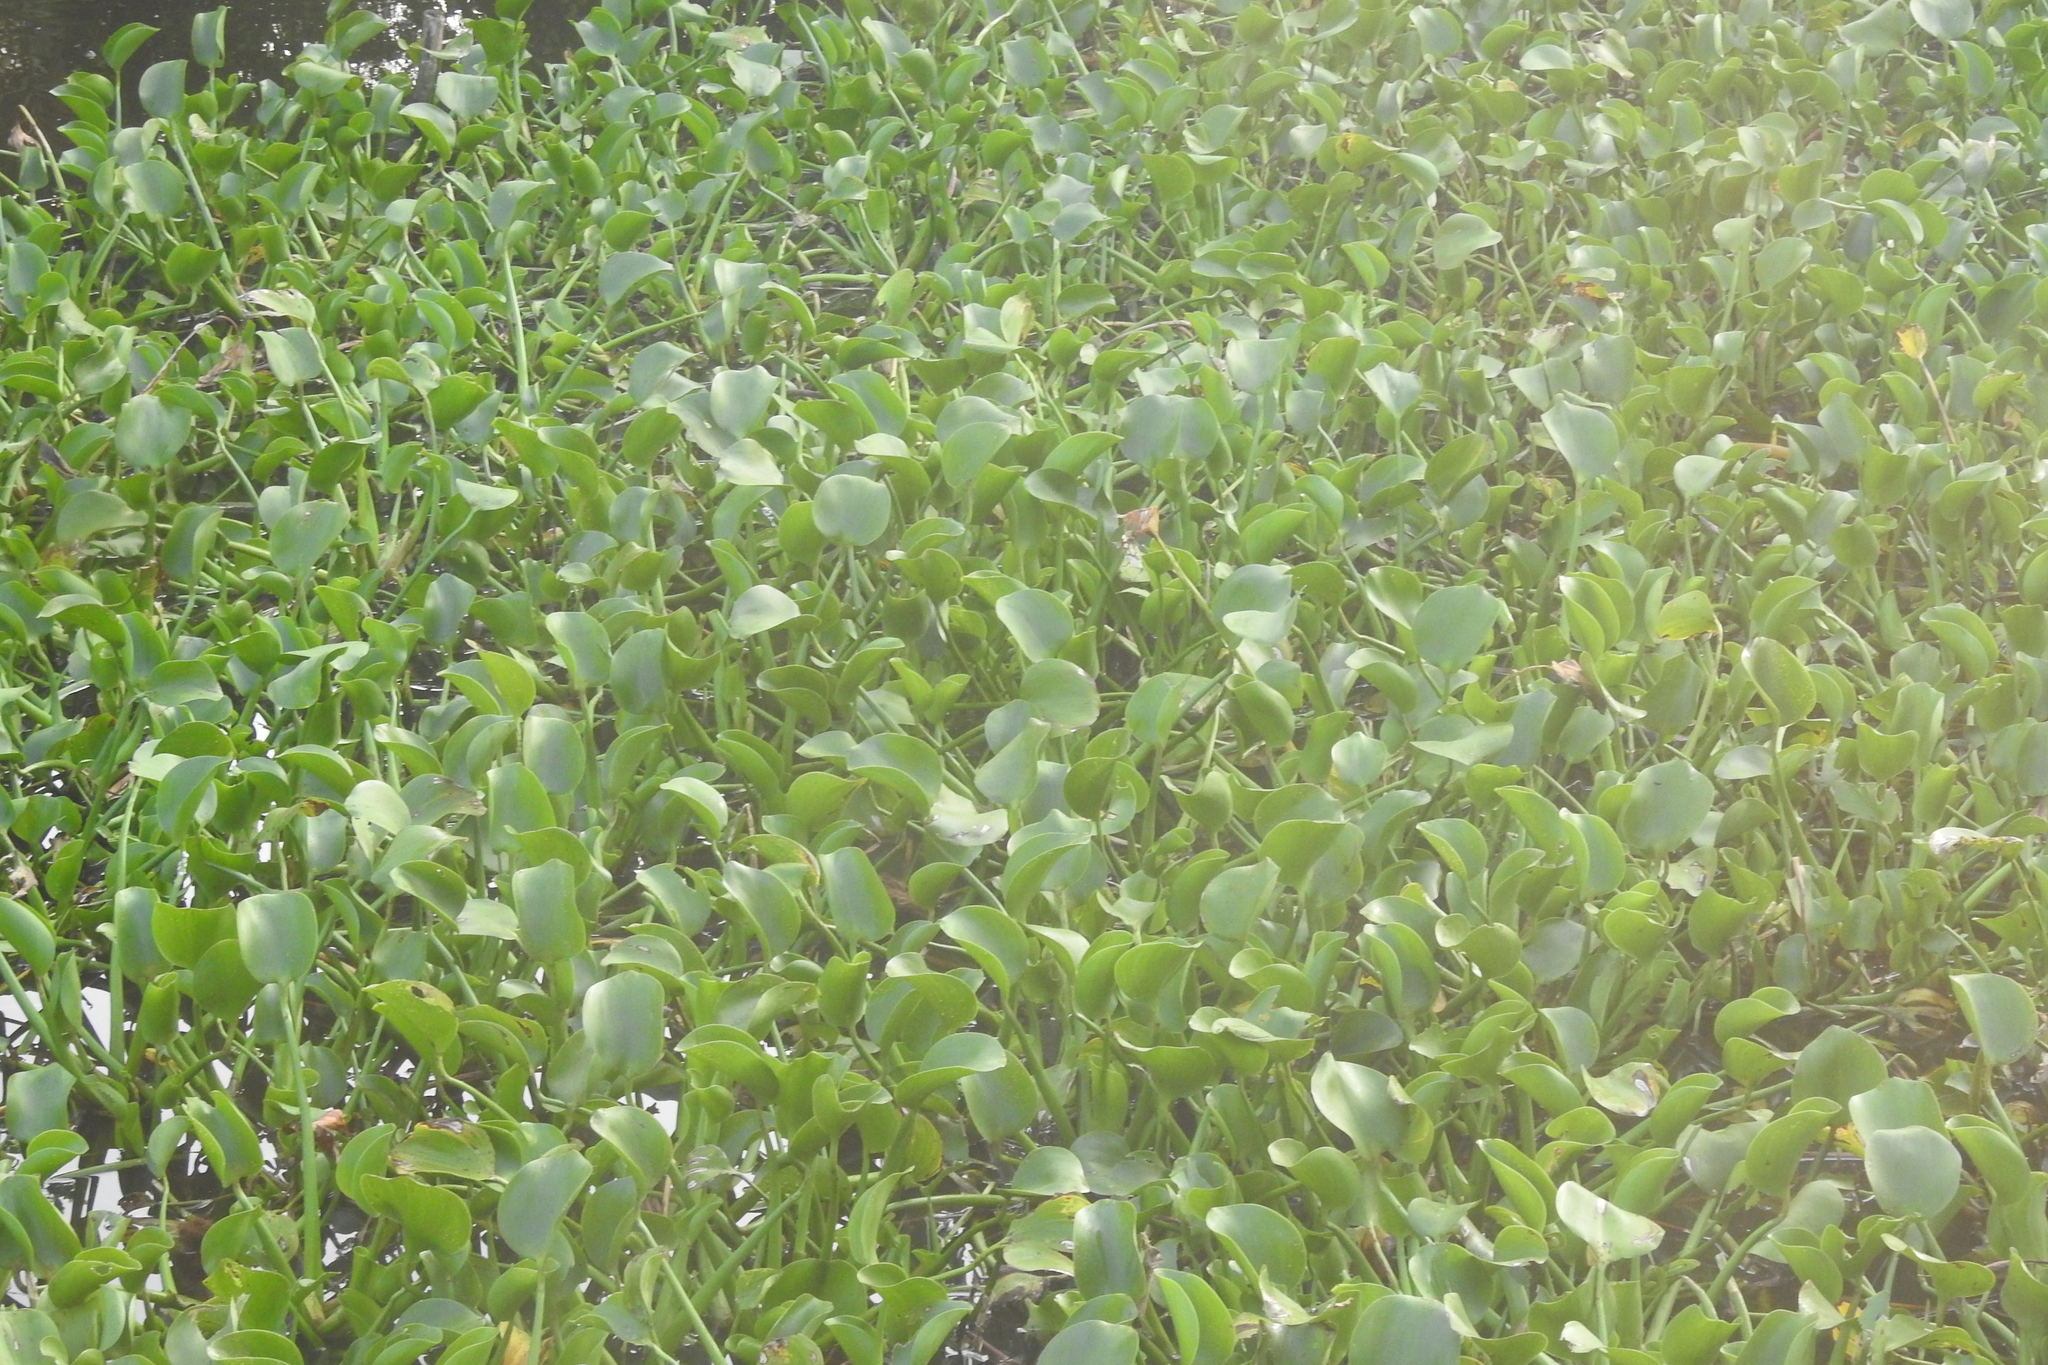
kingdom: Plantae
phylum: Tracheophyta
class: Liliopsida
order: Commelinales
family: Pontederiaceae
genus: Pontederia
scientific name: Pontederia crassipes
